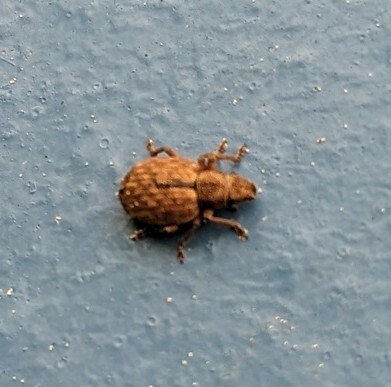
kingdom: Animalia
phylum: Arthropoda
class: Insecta
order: Coleoptera
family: Curculionidae
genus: Strophosoma
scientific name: Strophosoma melanogrammum
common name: Weevil
